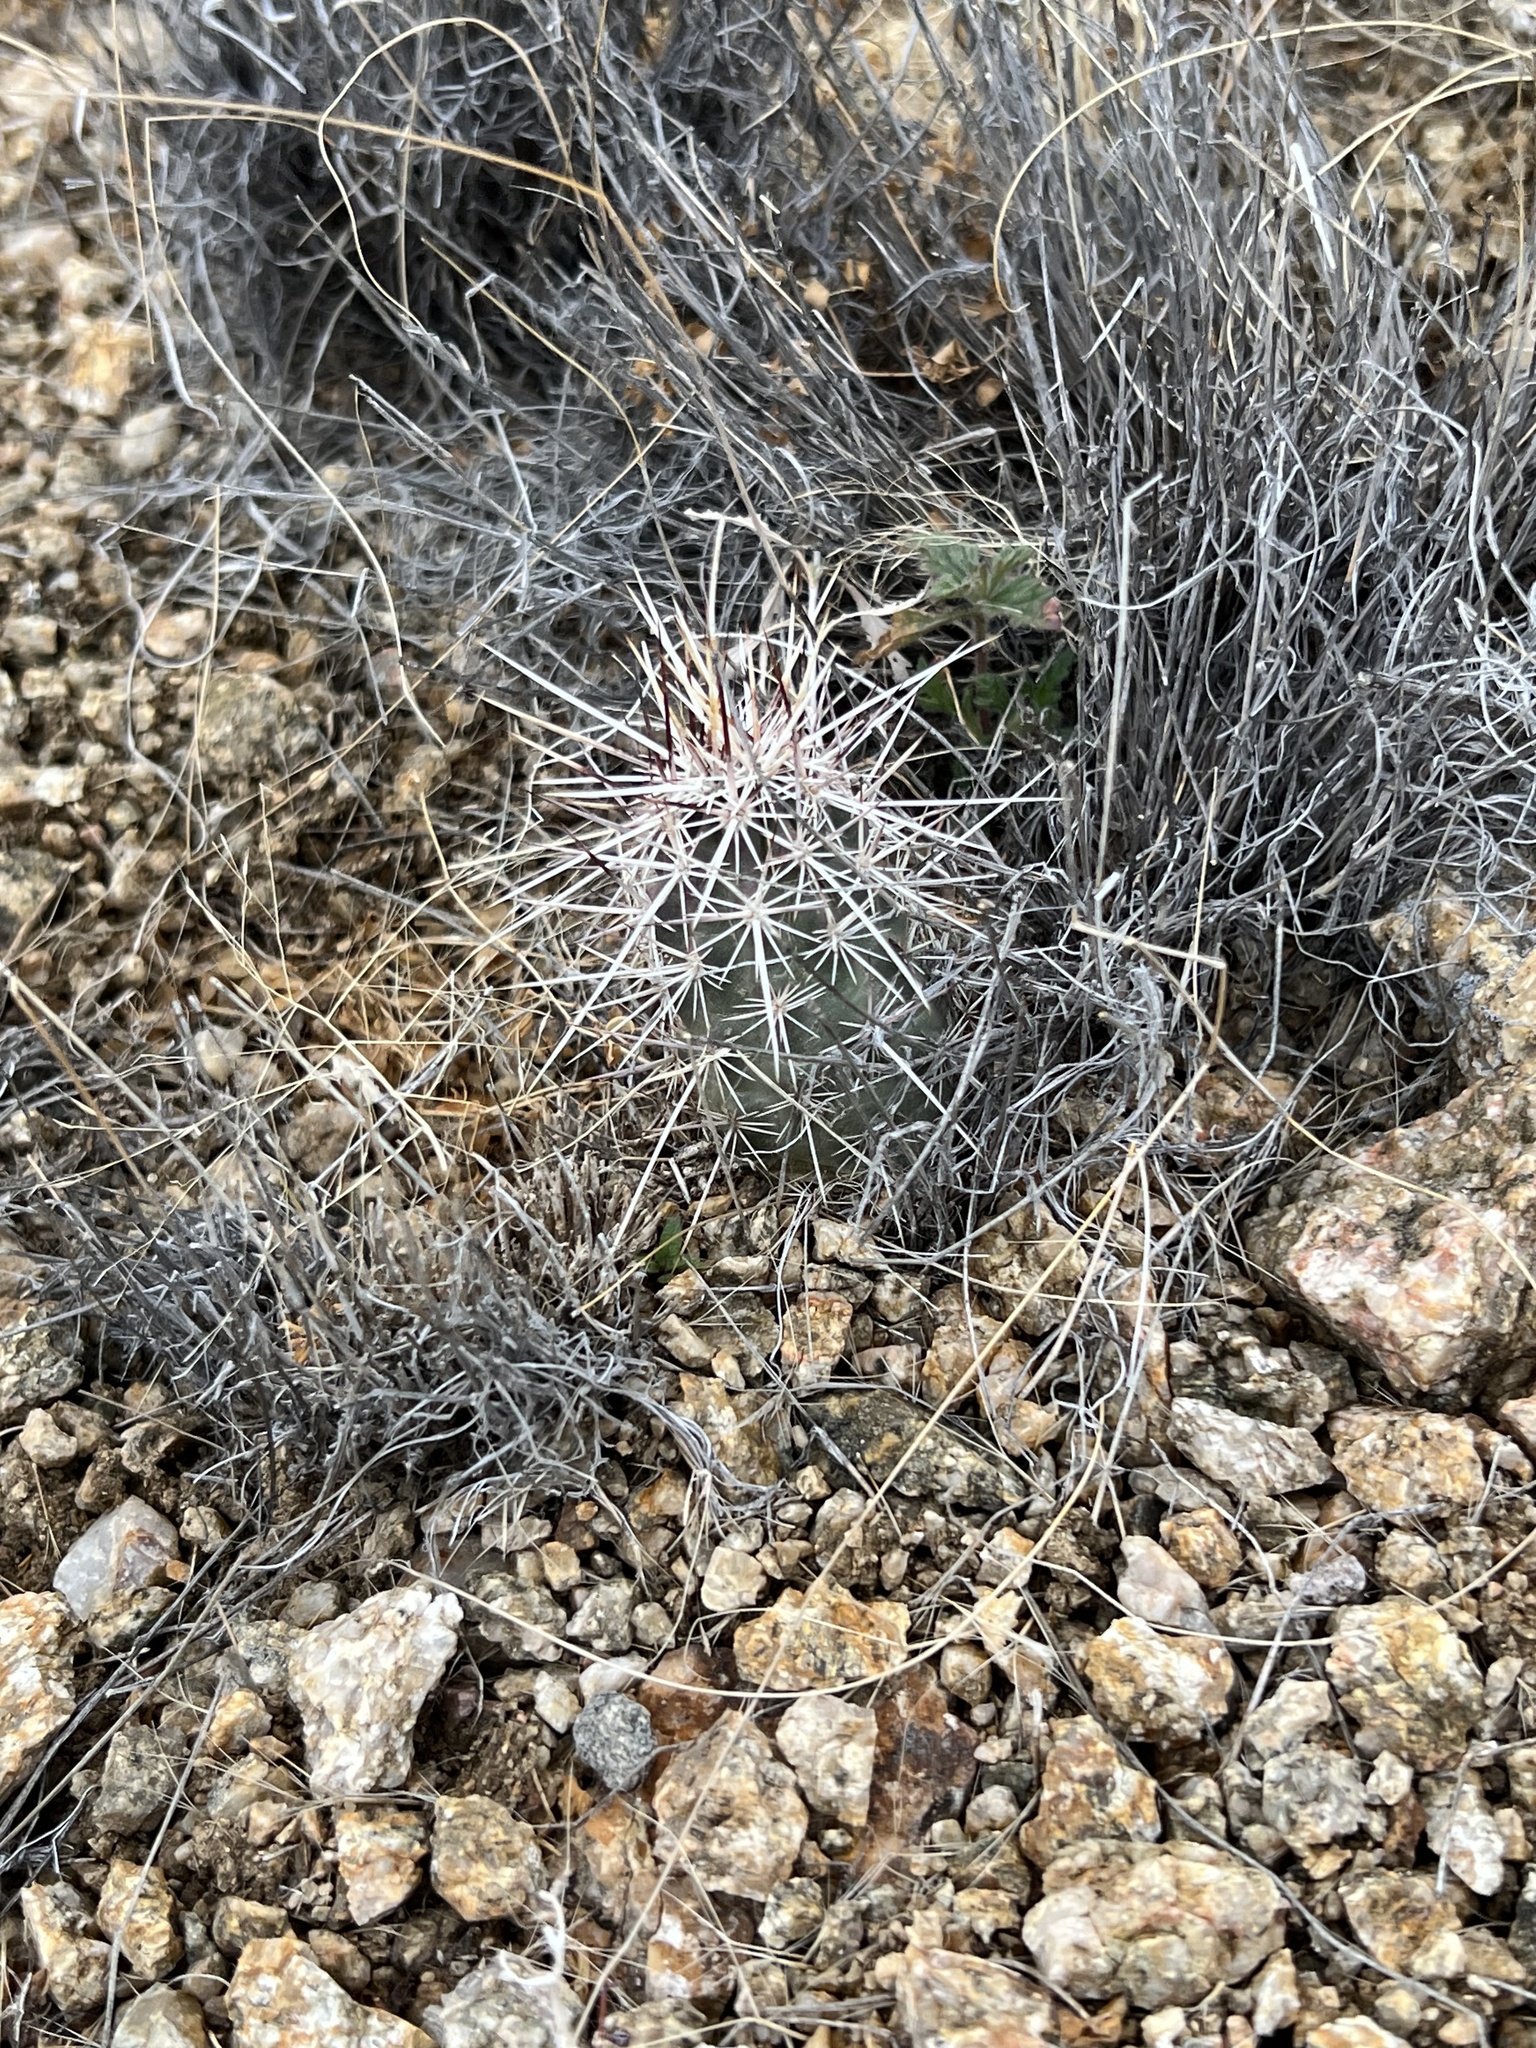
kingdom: Plantae
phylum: Tracheophyta
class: Magnoliopsida
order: Caryophyllales
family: Cactaceae
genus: Echinocereus
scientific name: Echinocereus engelmannii
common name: Engelmann's hedgehog cactus
